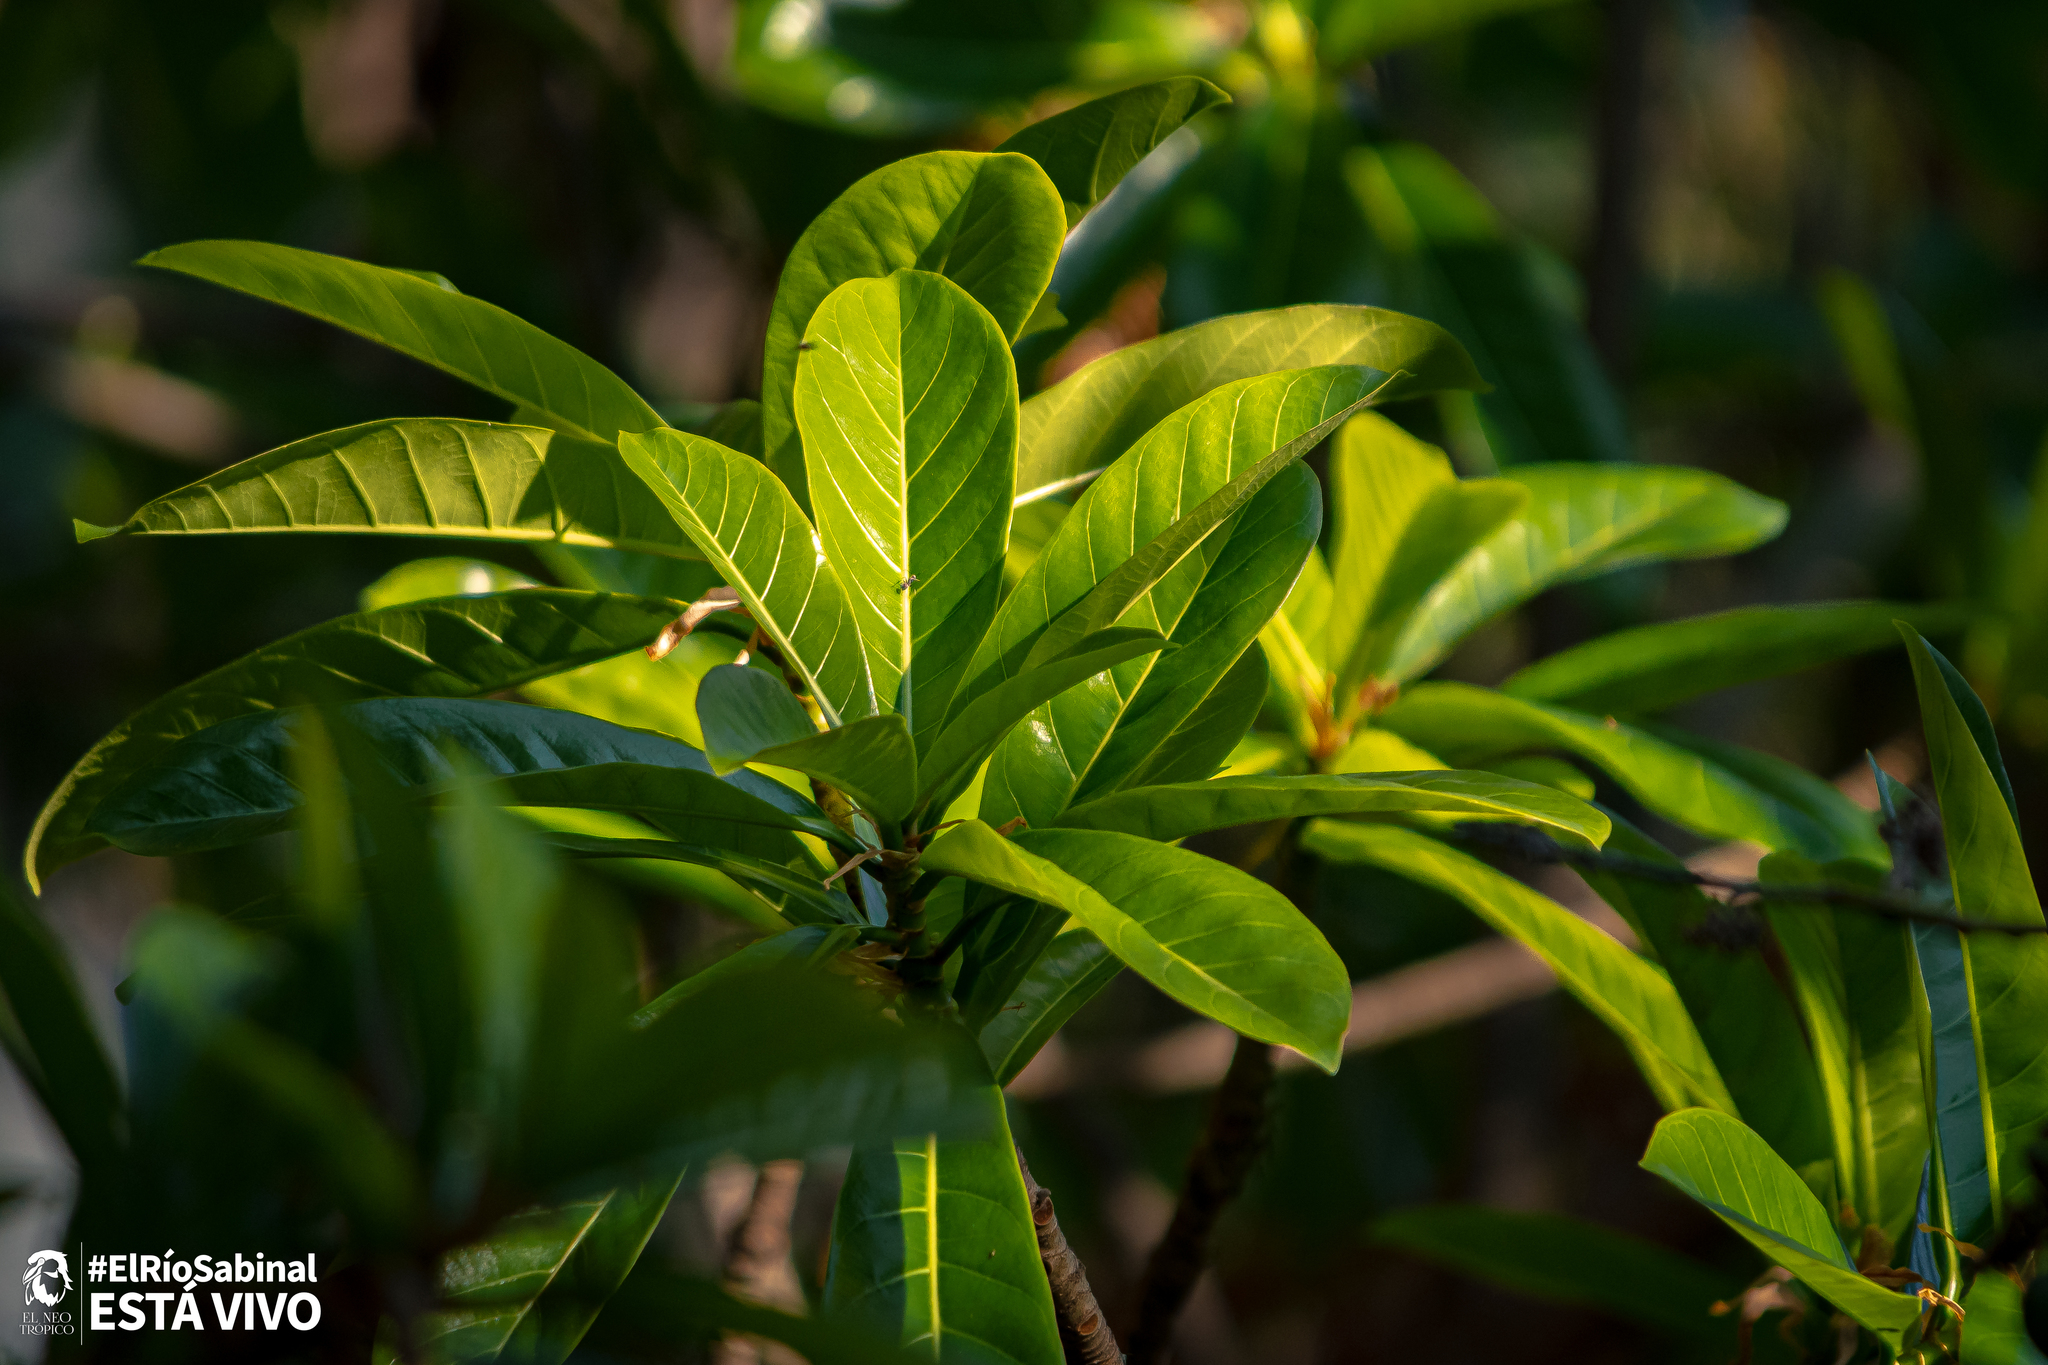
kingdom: Plantae
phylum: Tracheophyta
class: Magnoliopsida
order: Rosales
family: Moraceae
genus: Ficus
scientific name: Ficus obtusifolia
